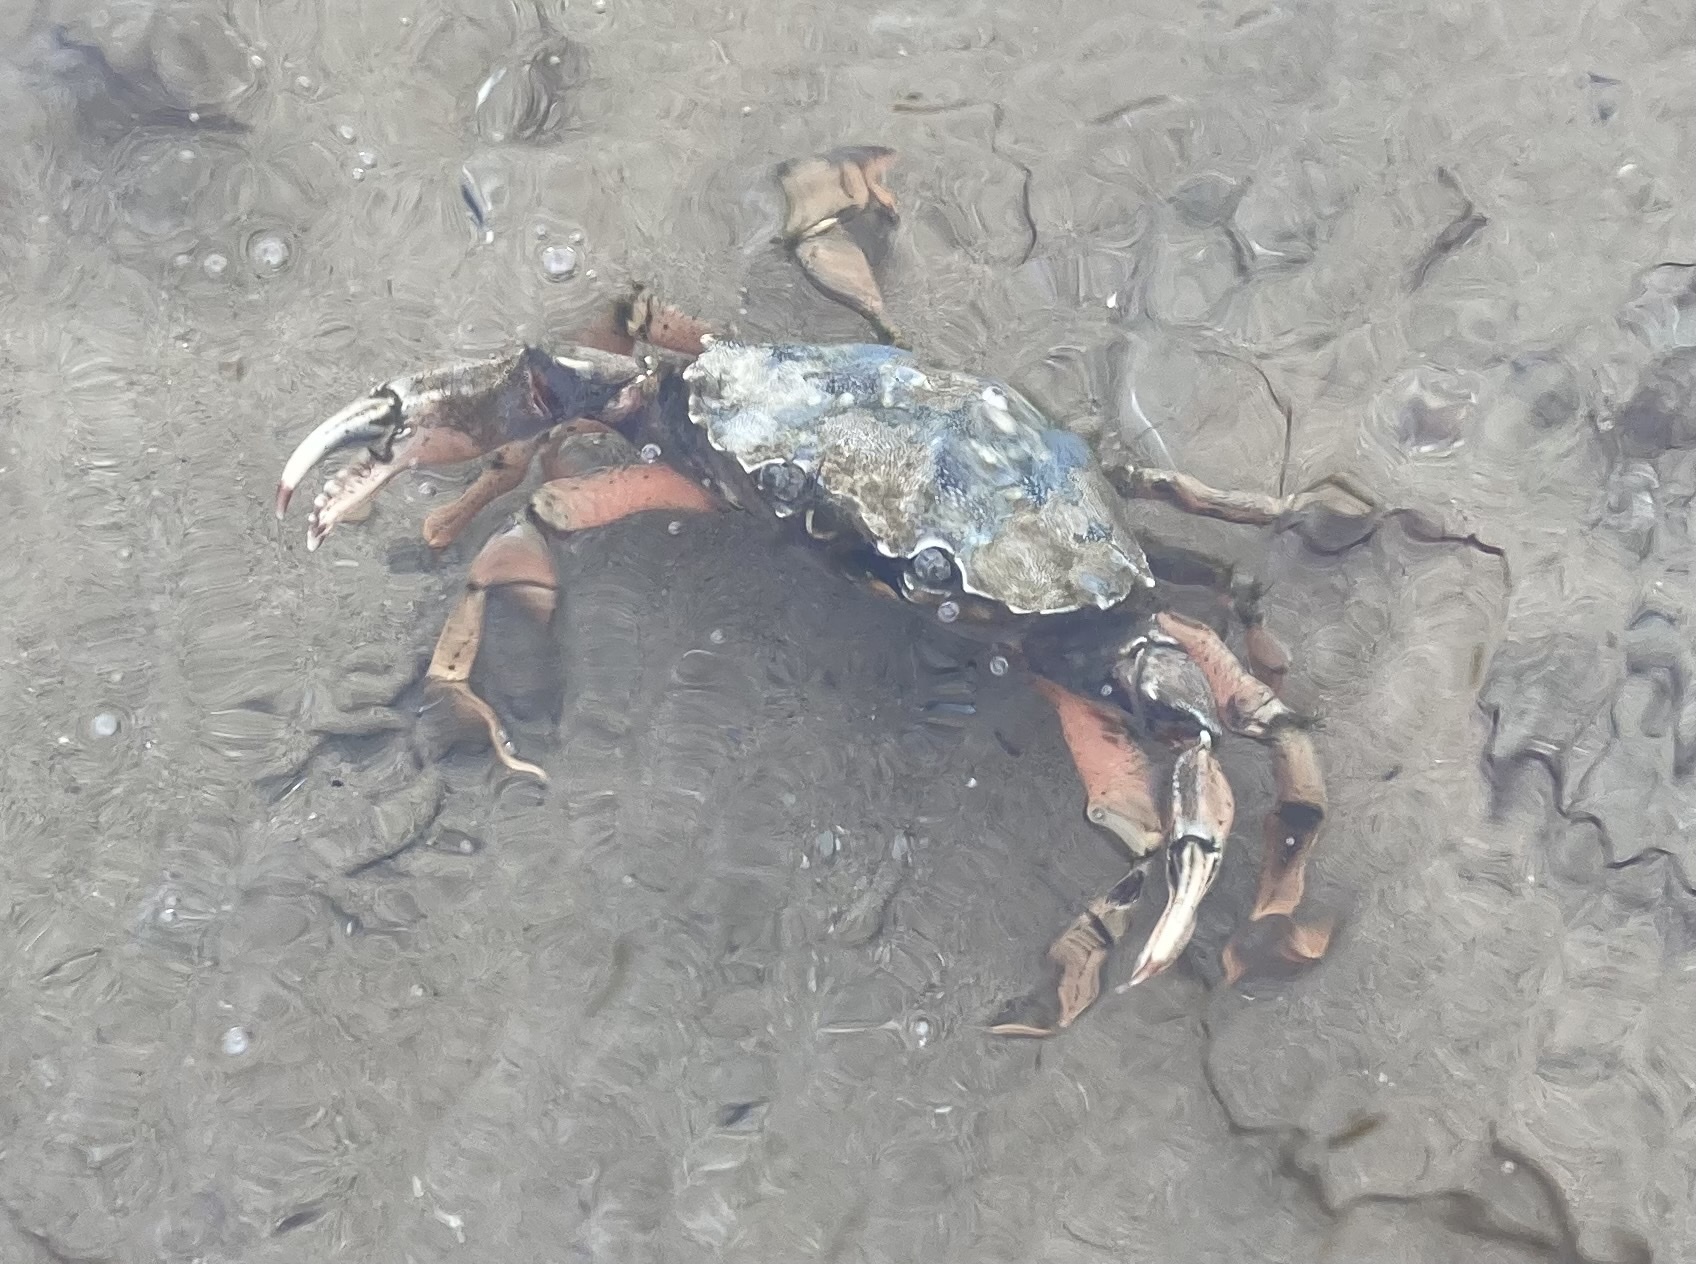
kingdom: Animalia
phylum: Arthropoda
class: Malacostraca
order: Decapoda
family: Carcinidae
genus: Carcinus
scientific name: Carcinus maenas
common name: European green crab
